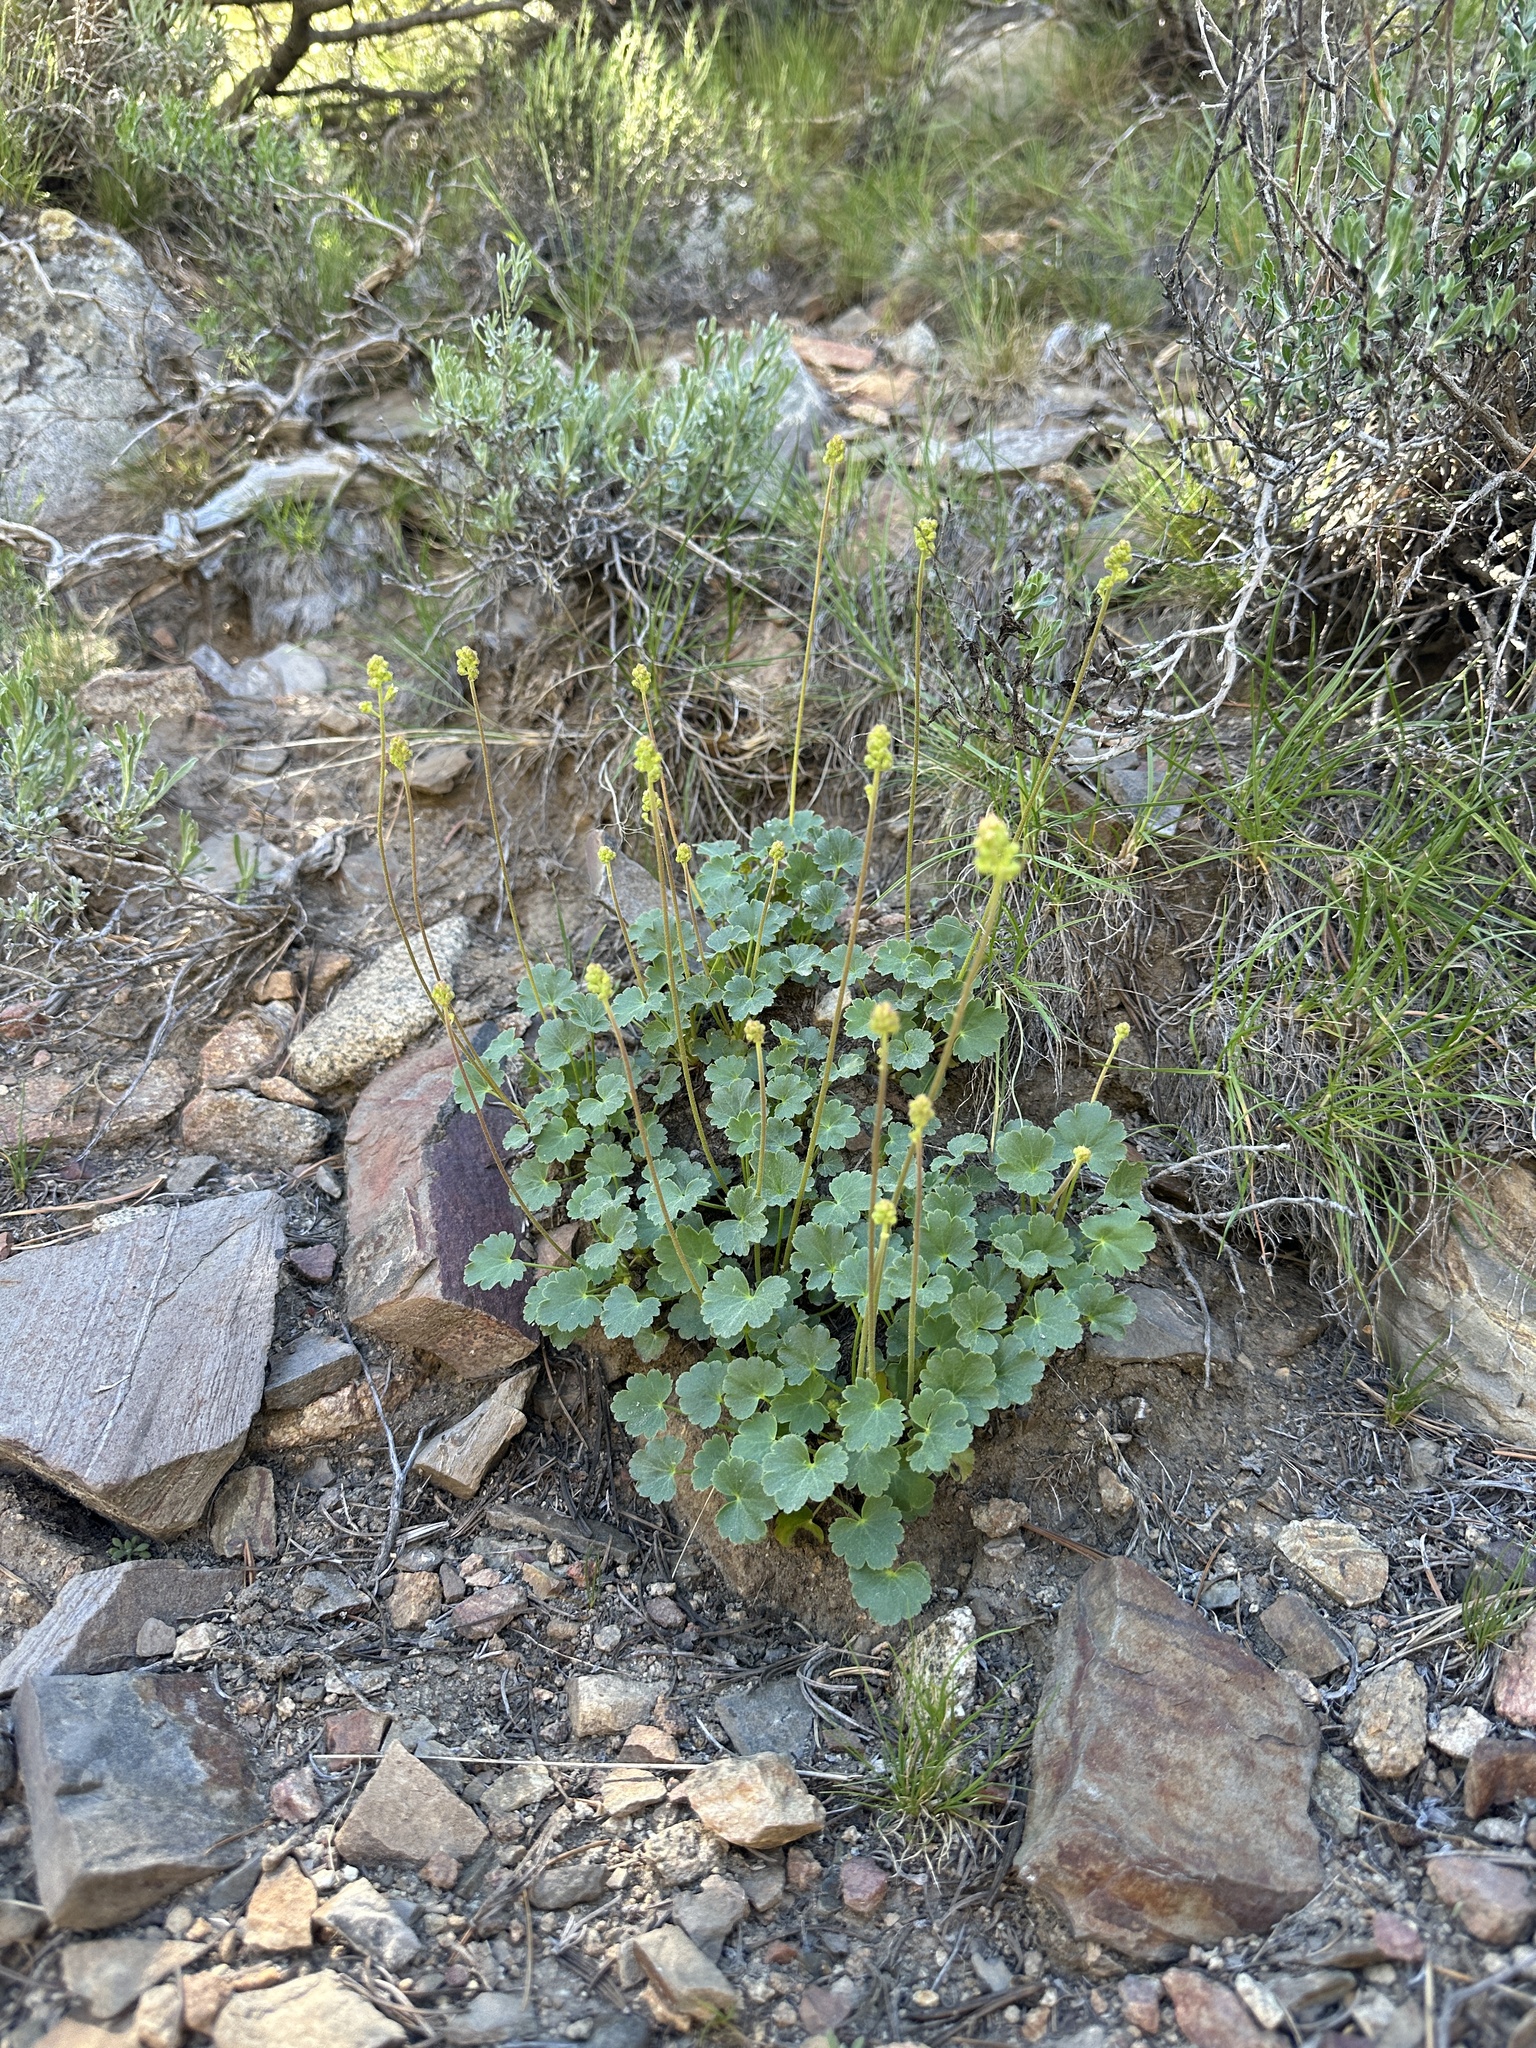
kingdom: Plantae
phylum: Tracheophyta
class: Magnoliopsida
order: Saxifragales
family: Saxifragaceae
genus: Heuchera
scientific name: Heuchera parvifolia
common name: Common alumroot
